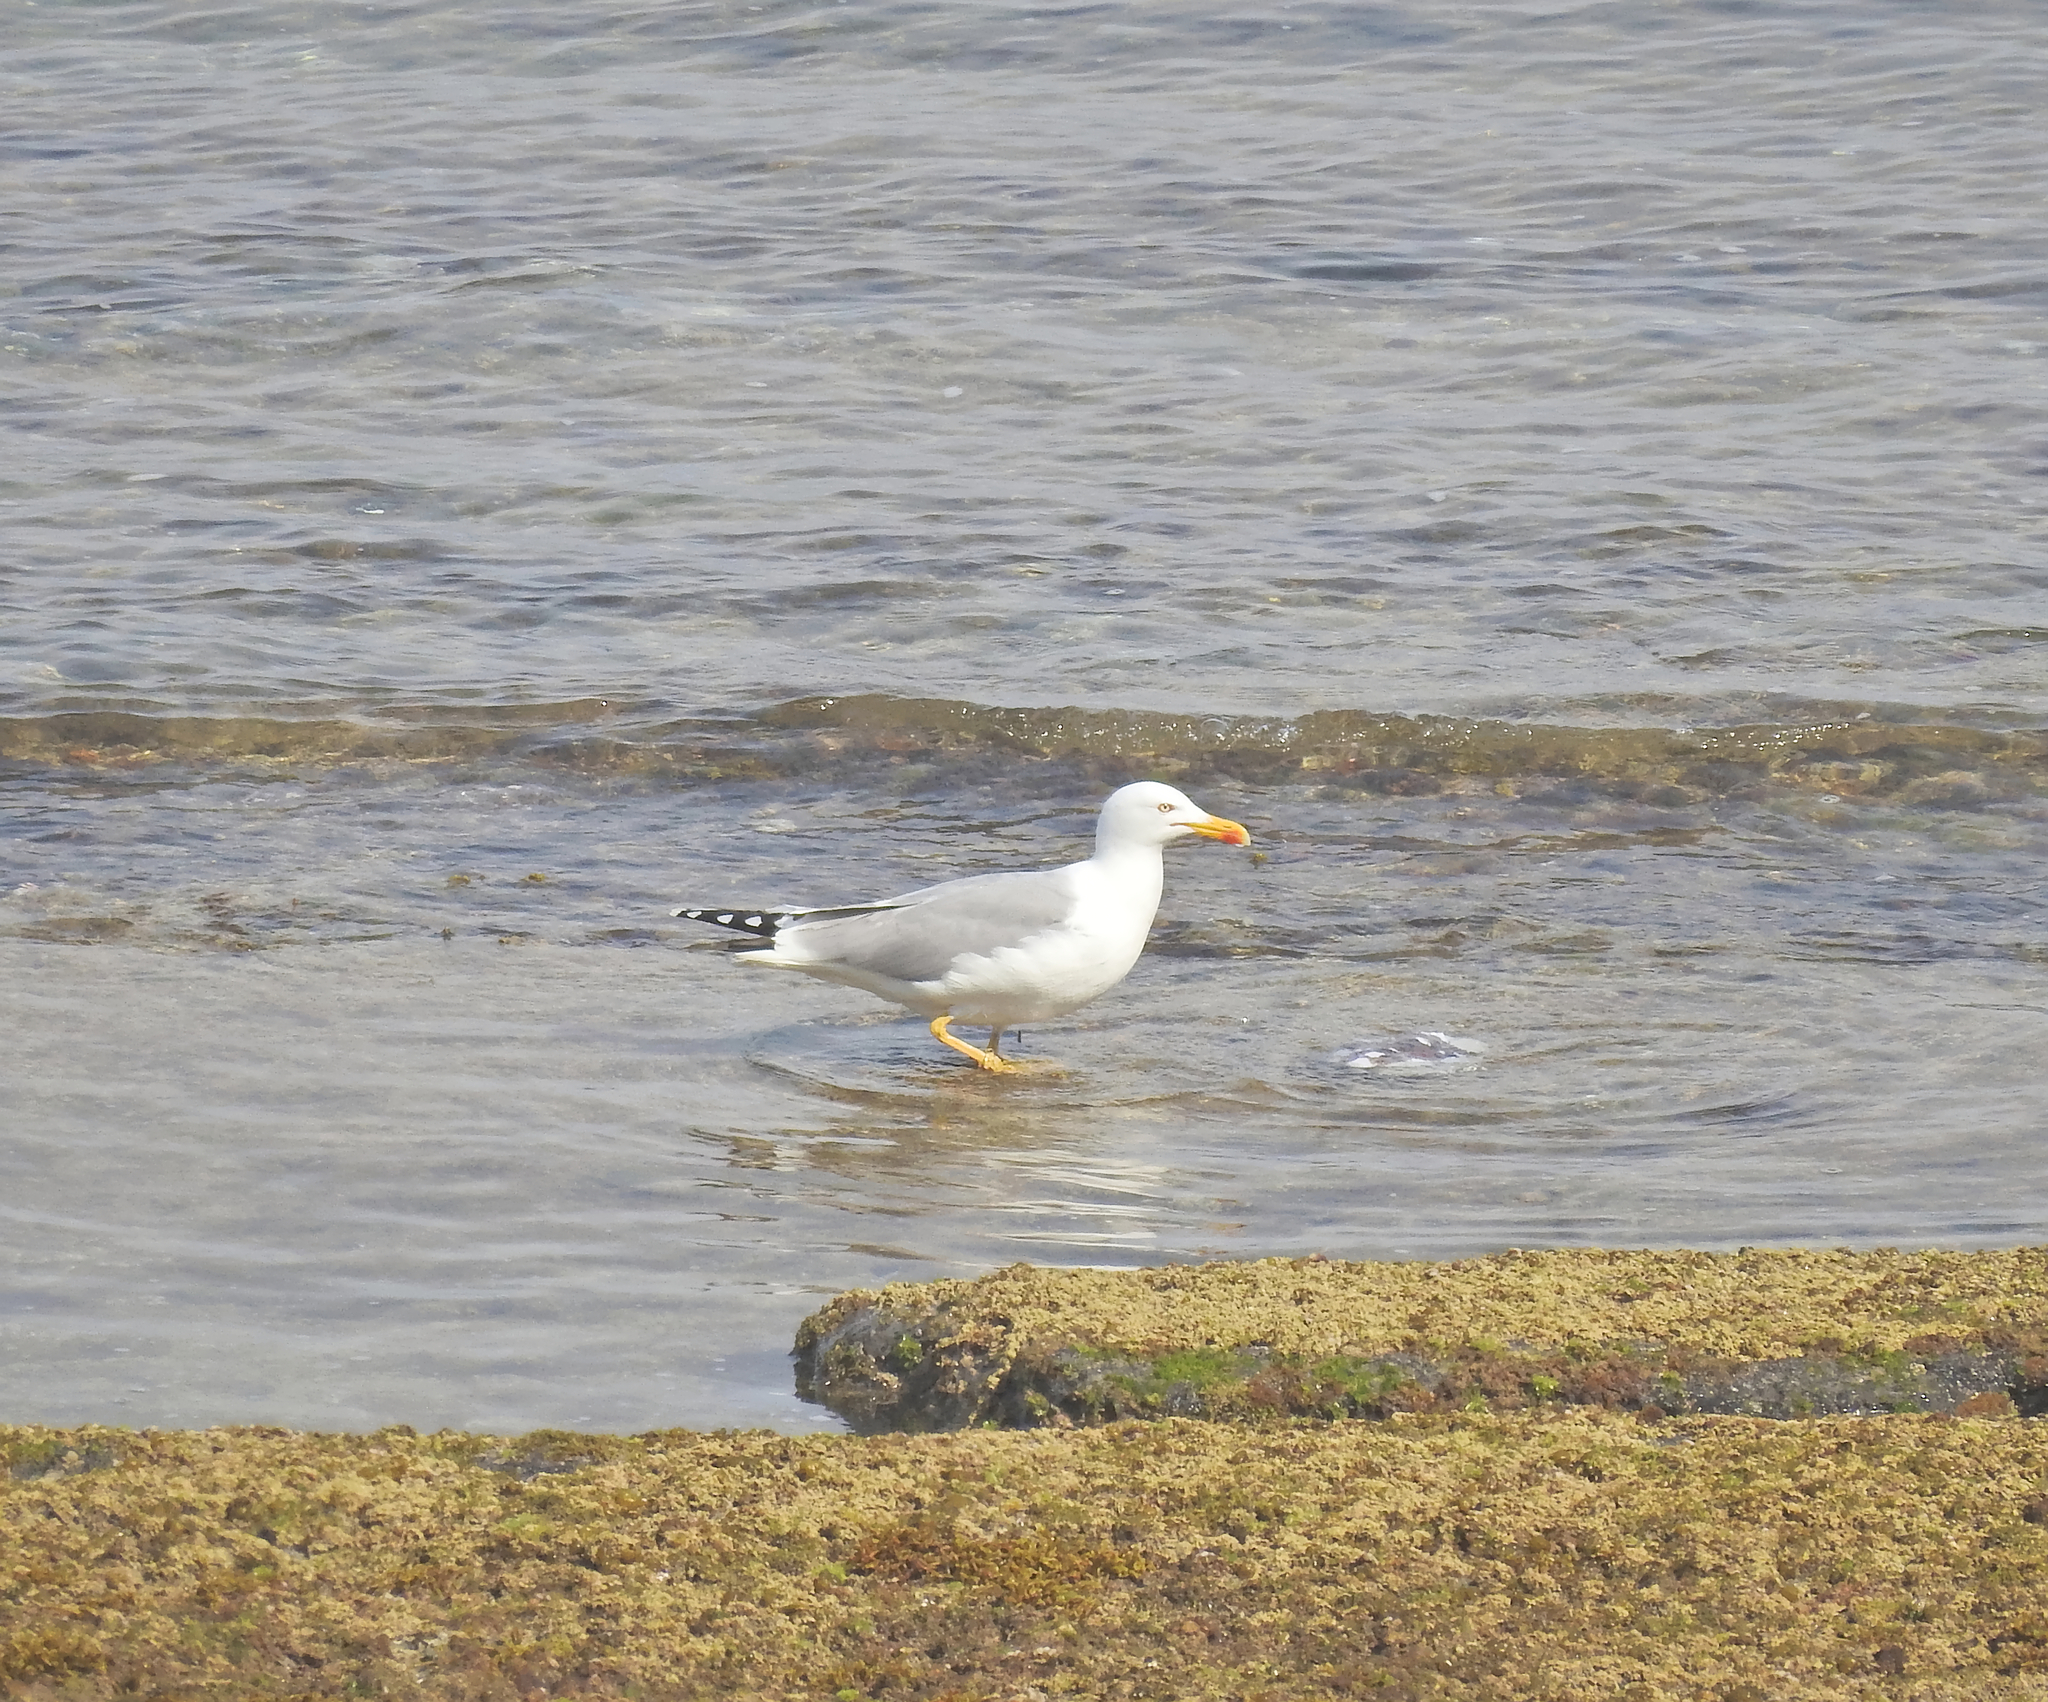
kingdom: Animalia
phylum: Chordata
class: Aves
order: Charadriiformes
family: Laridae
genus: Larus
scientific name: Larus michahellis
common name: Yellow-legged gull
